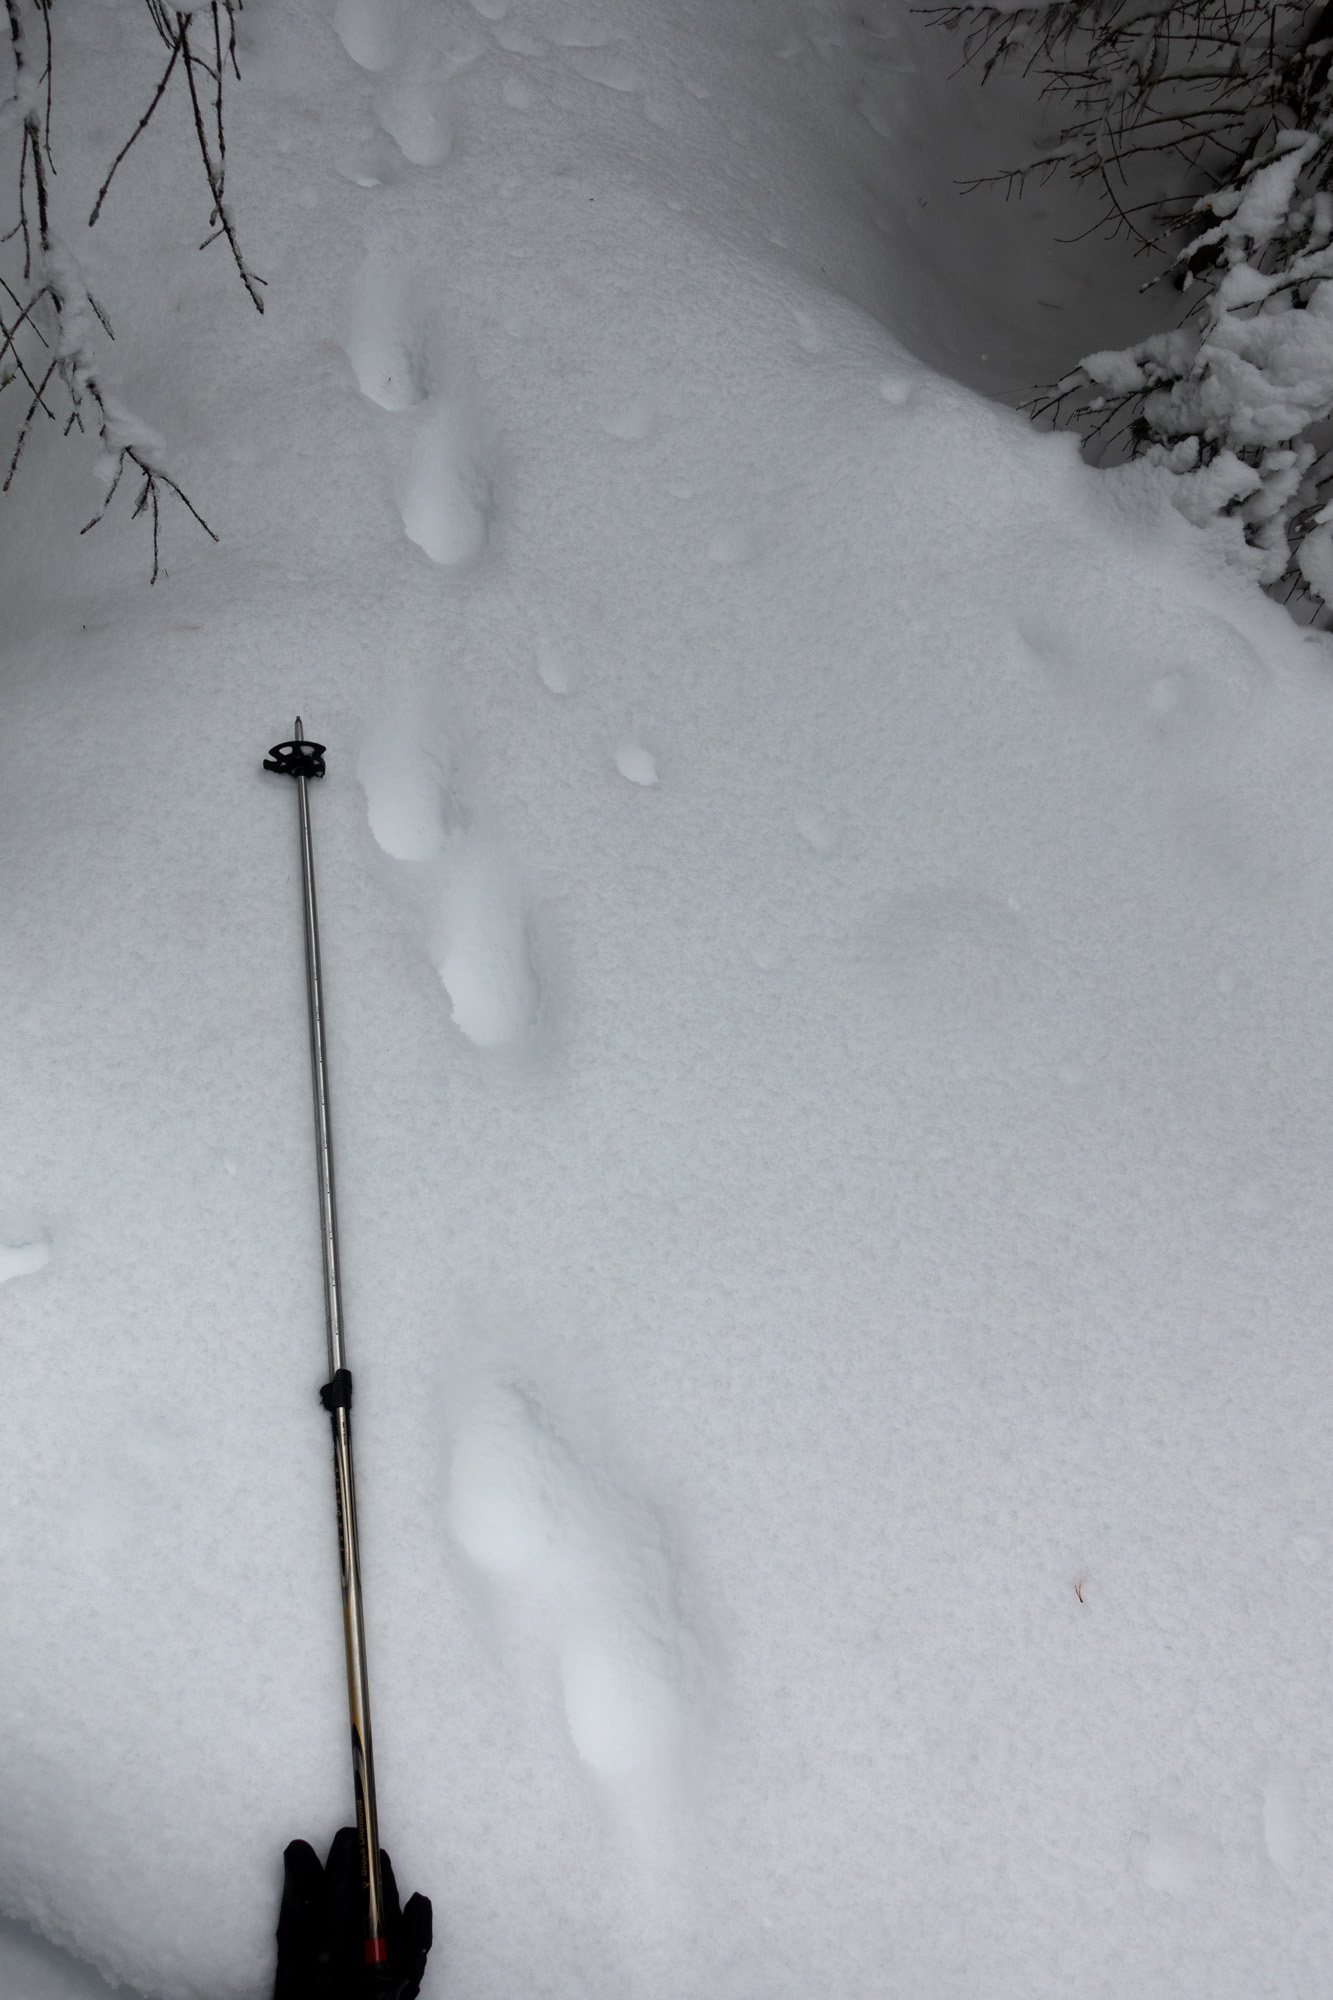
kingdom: Animalia
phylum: Chordata
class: Mammalia
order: Carnivora
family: Mustelidae
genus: Gulo
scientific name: Gulo gulo
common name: Wolverine
